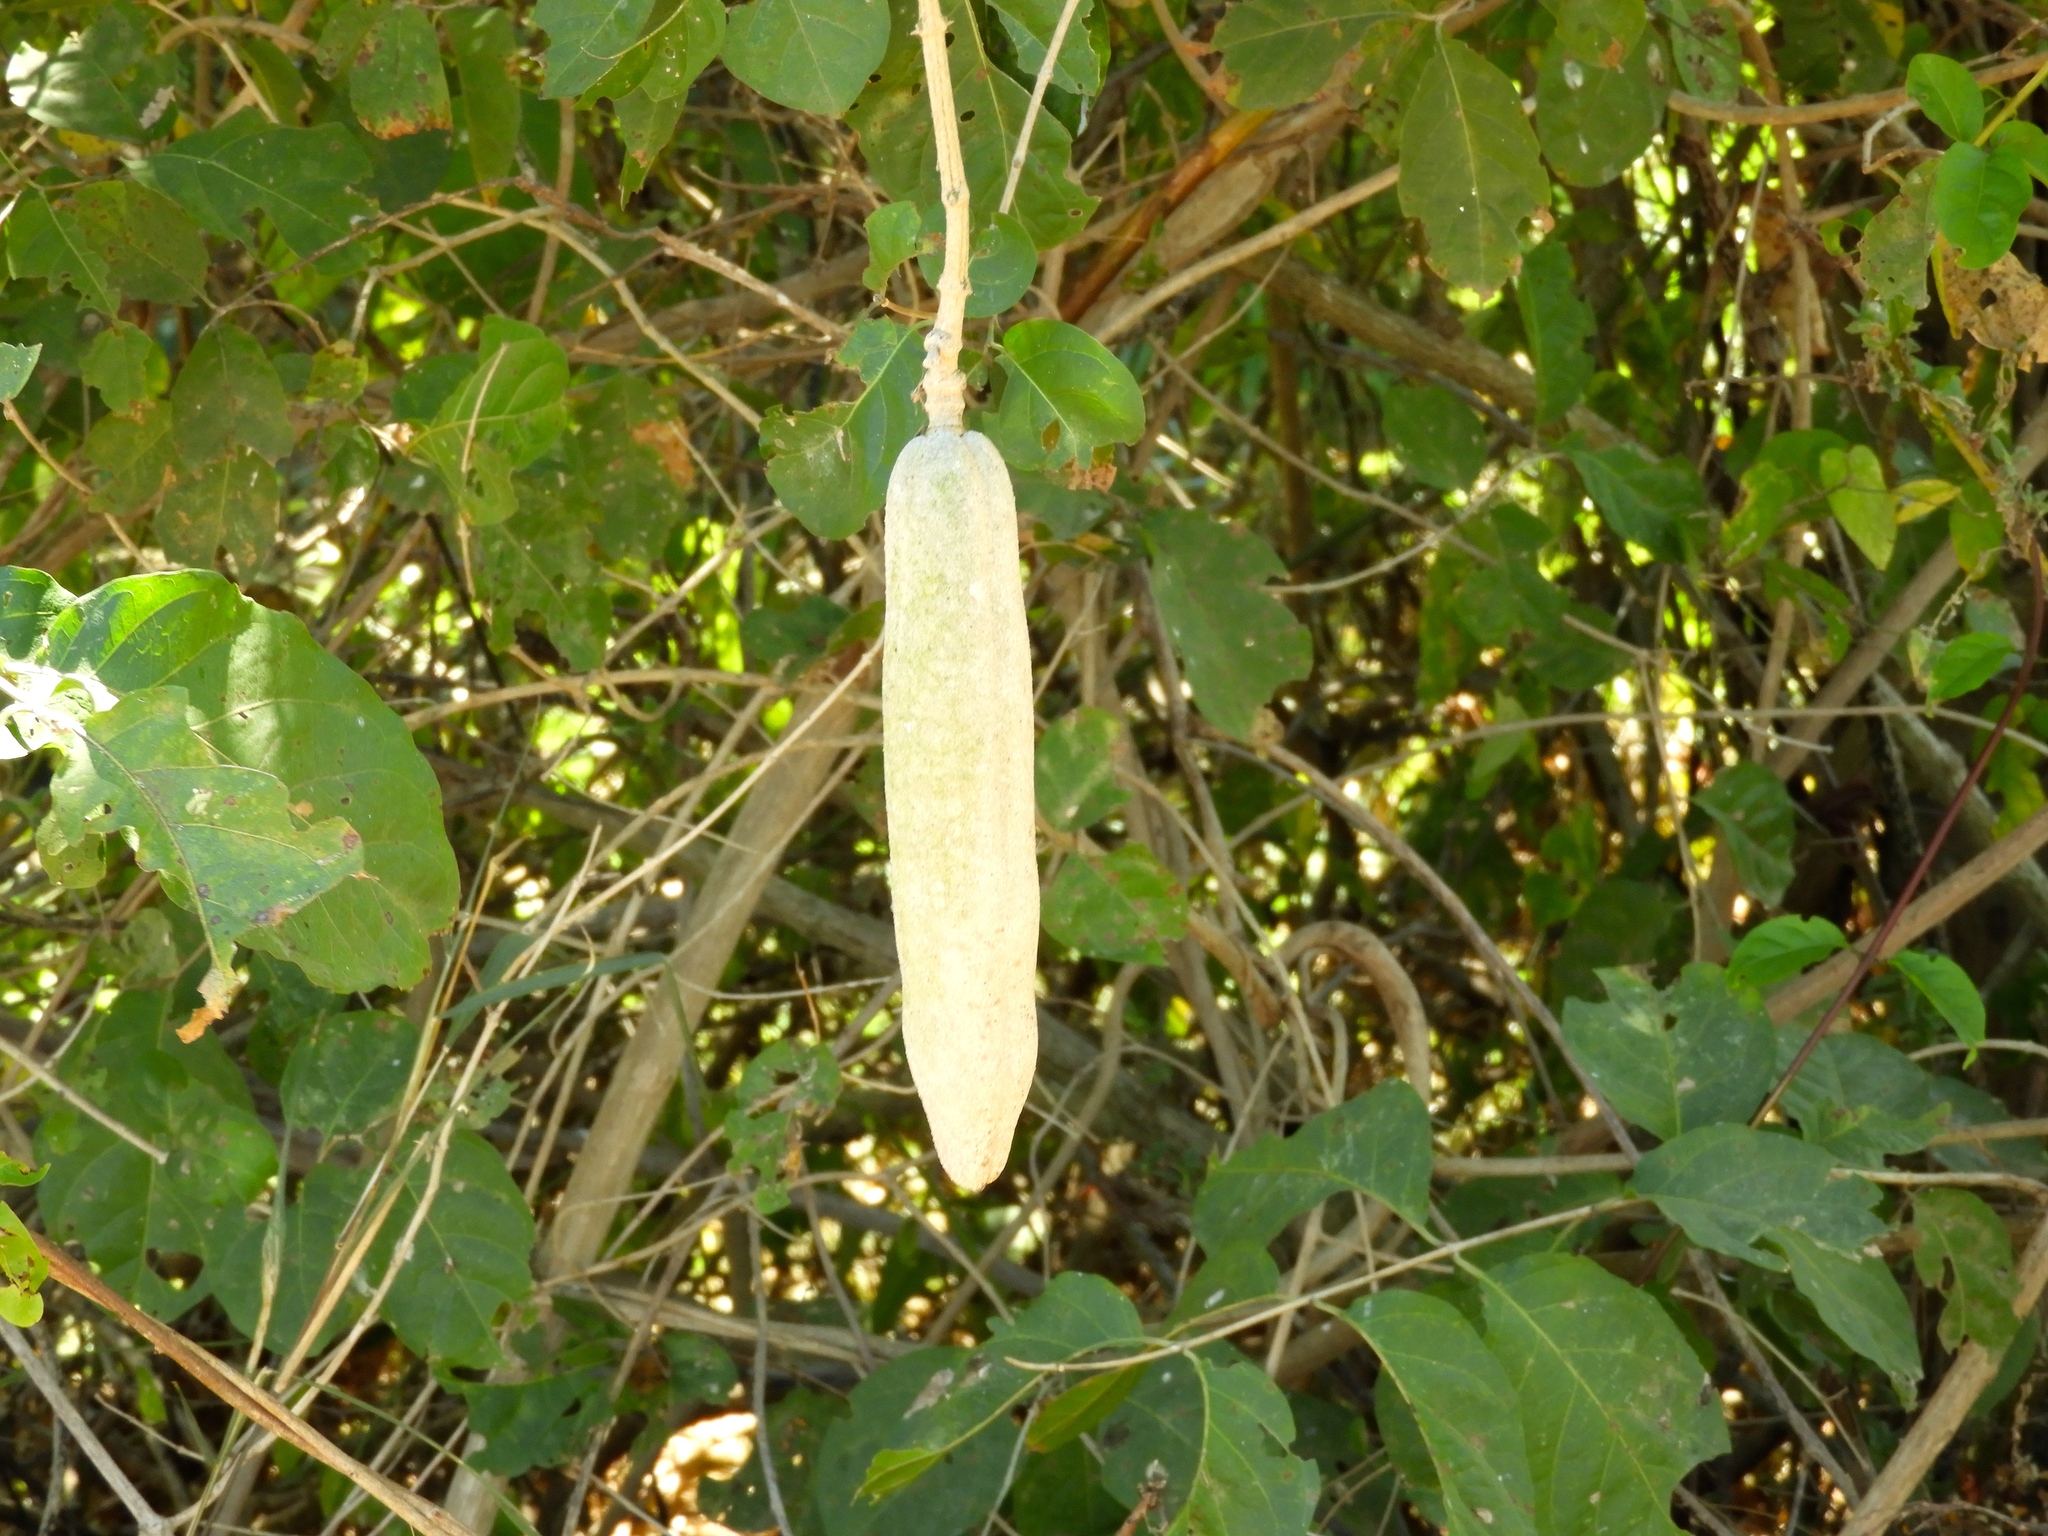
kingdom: Plantae
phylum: Tracheophyta
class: Magnoliopsida
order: Lamiales
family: Bignoniaceae
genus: Adenocalymma
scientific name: Adenocalymma inundatum
